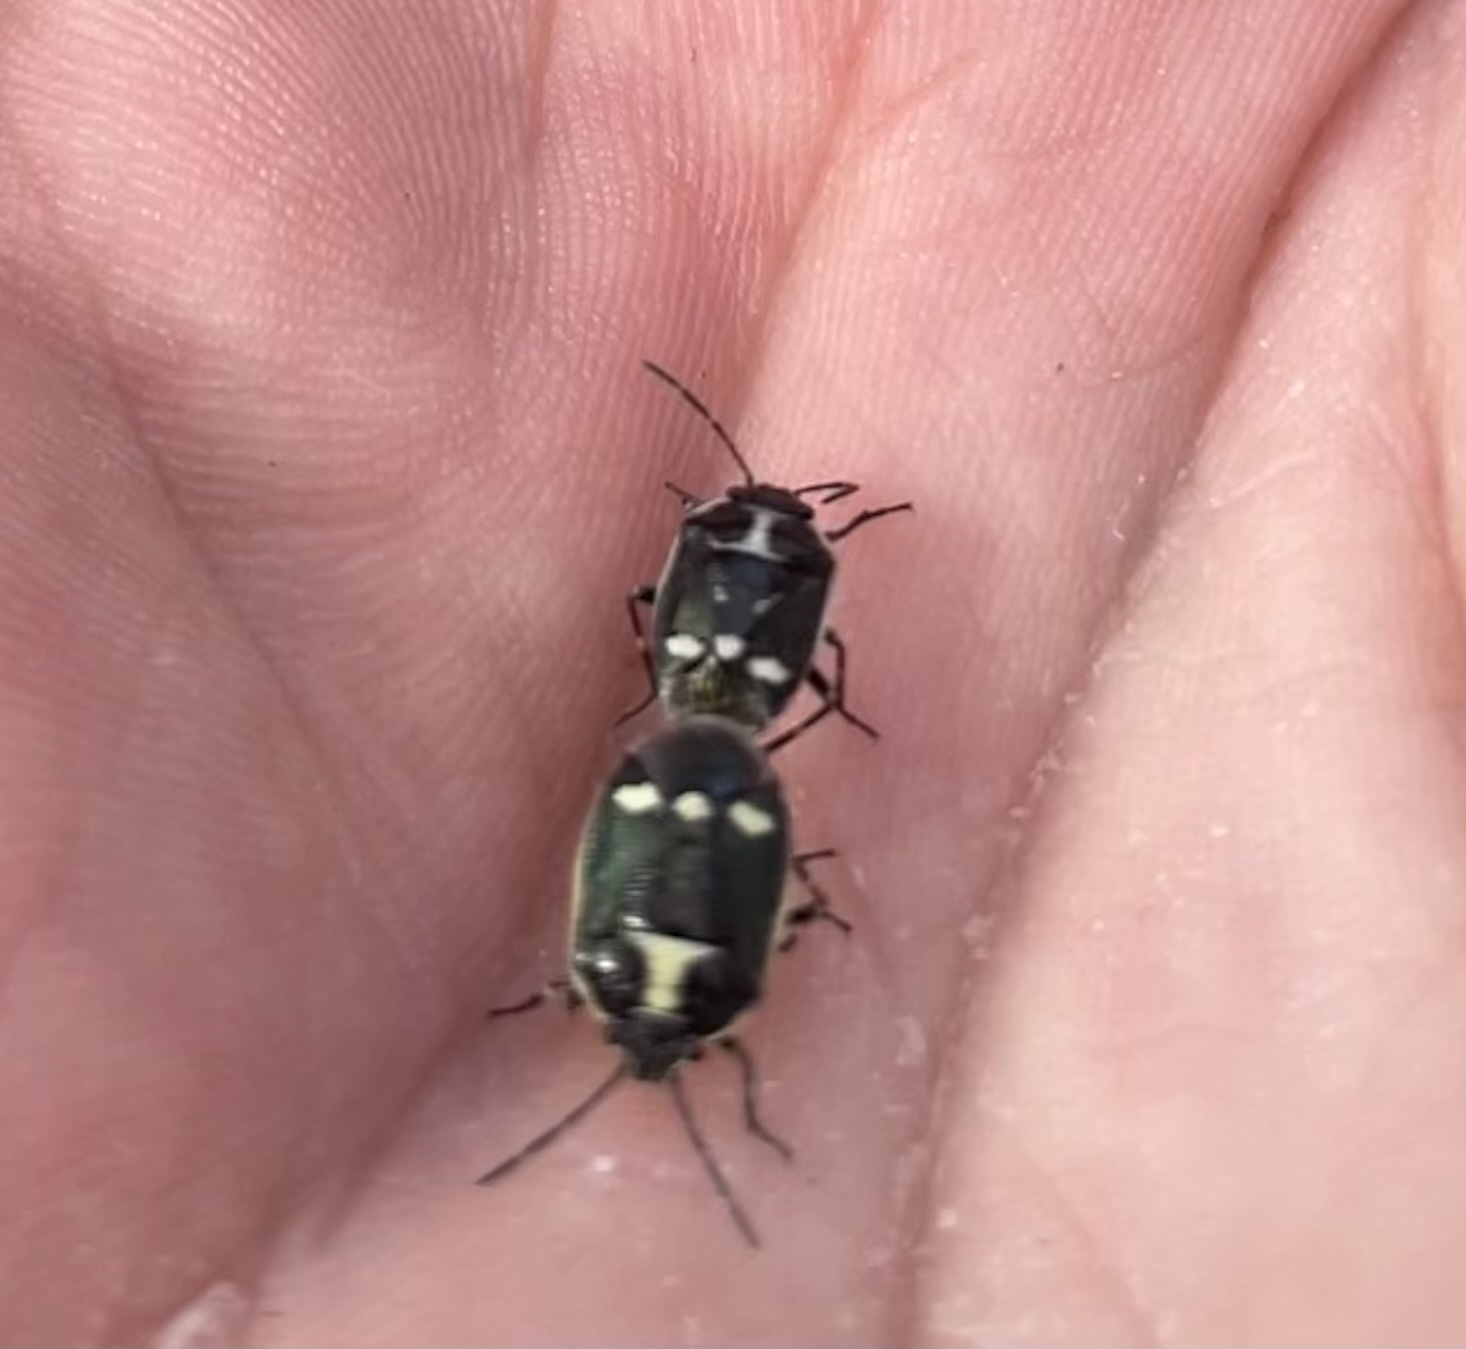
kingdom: Animalia
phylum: Arthropoda
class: Insecta
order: Hemiptera
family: Pentatomidae
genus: Eurydema
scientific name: Eurydema oleracea
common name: Cabbage bug
